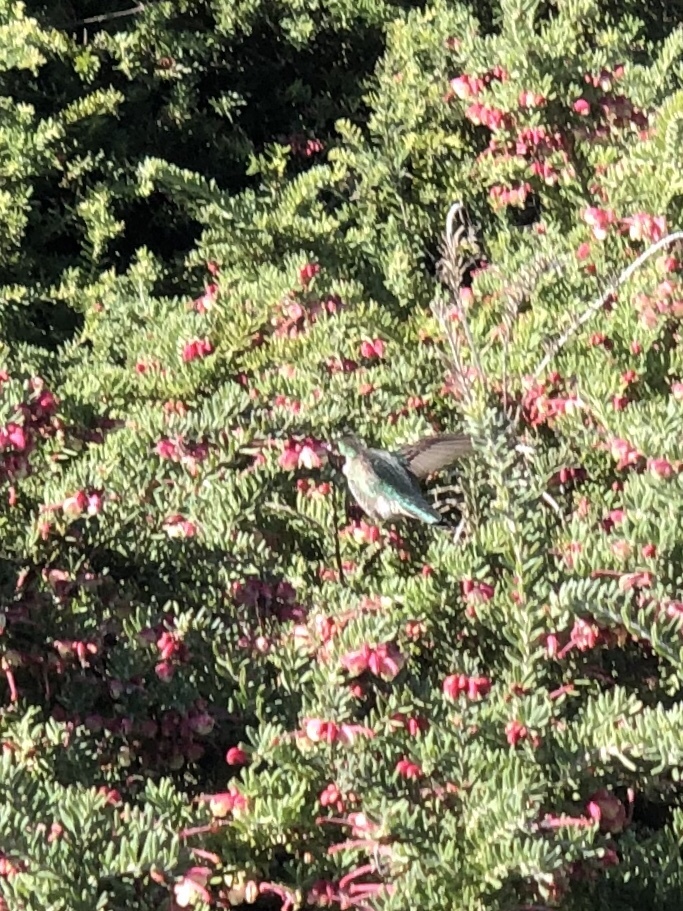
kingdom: Animalia
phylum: Chordata
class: Aves
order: Apodiformes
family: Trochilidae
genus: Calypte
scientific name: Calypte anna
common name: Anna's hummingbird
